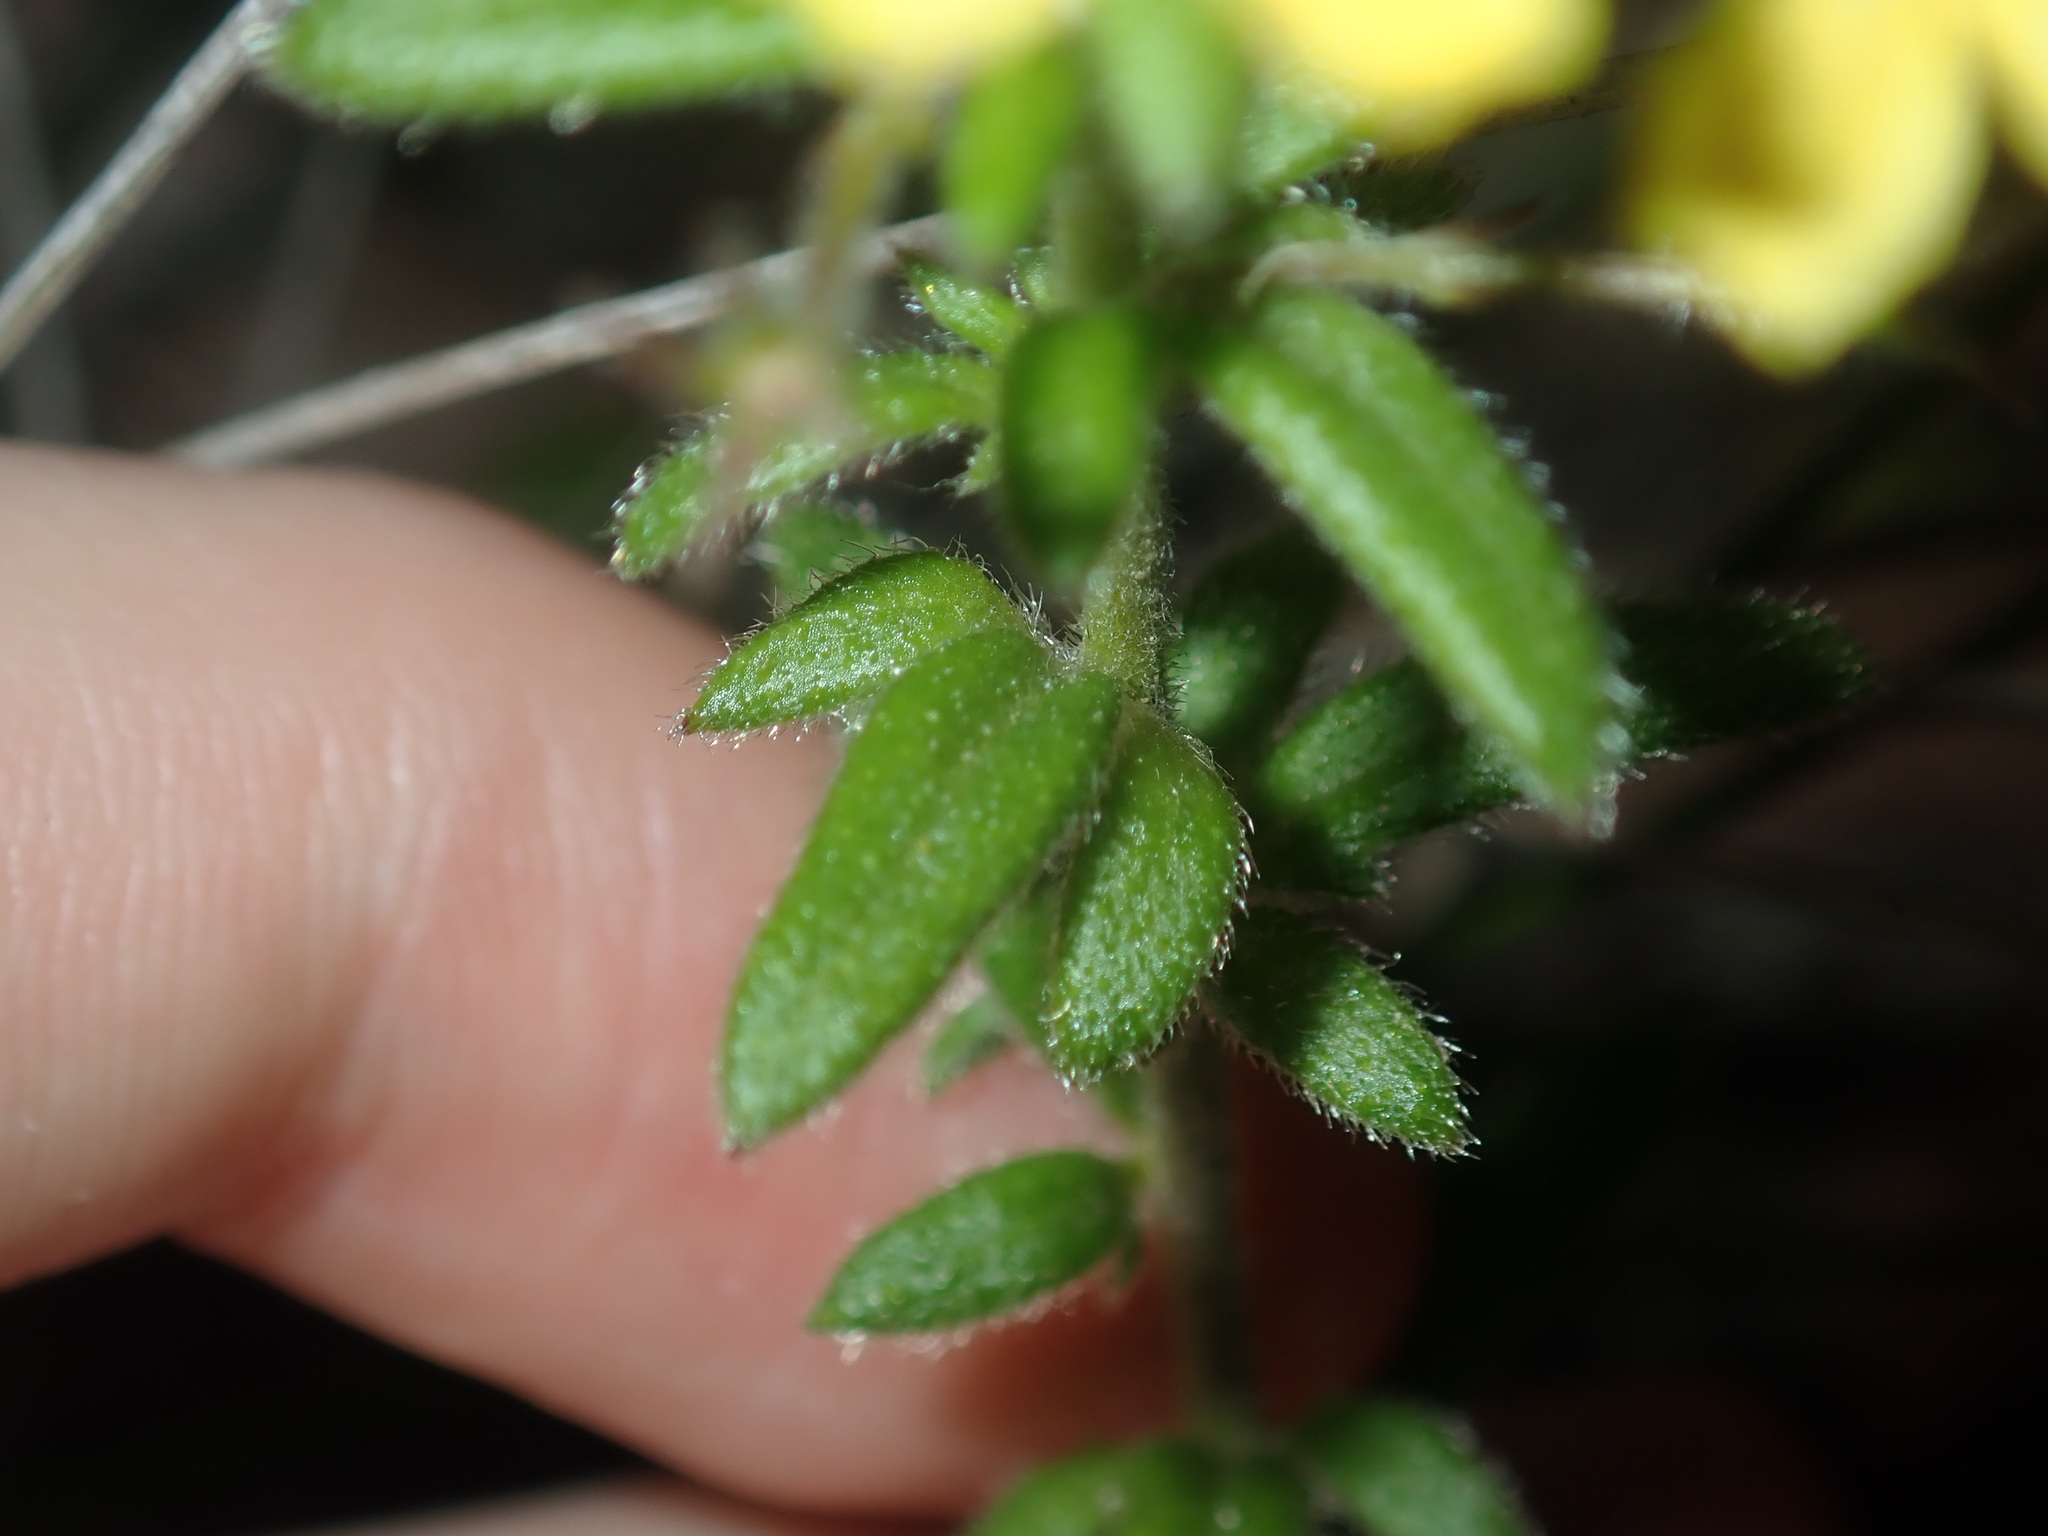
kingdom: Plantae
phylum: Tracheophyta
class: Magnoliopsida
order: Asterales
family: Goodeniaceae
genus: Goodenia
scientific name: Goodenia heterophylla
